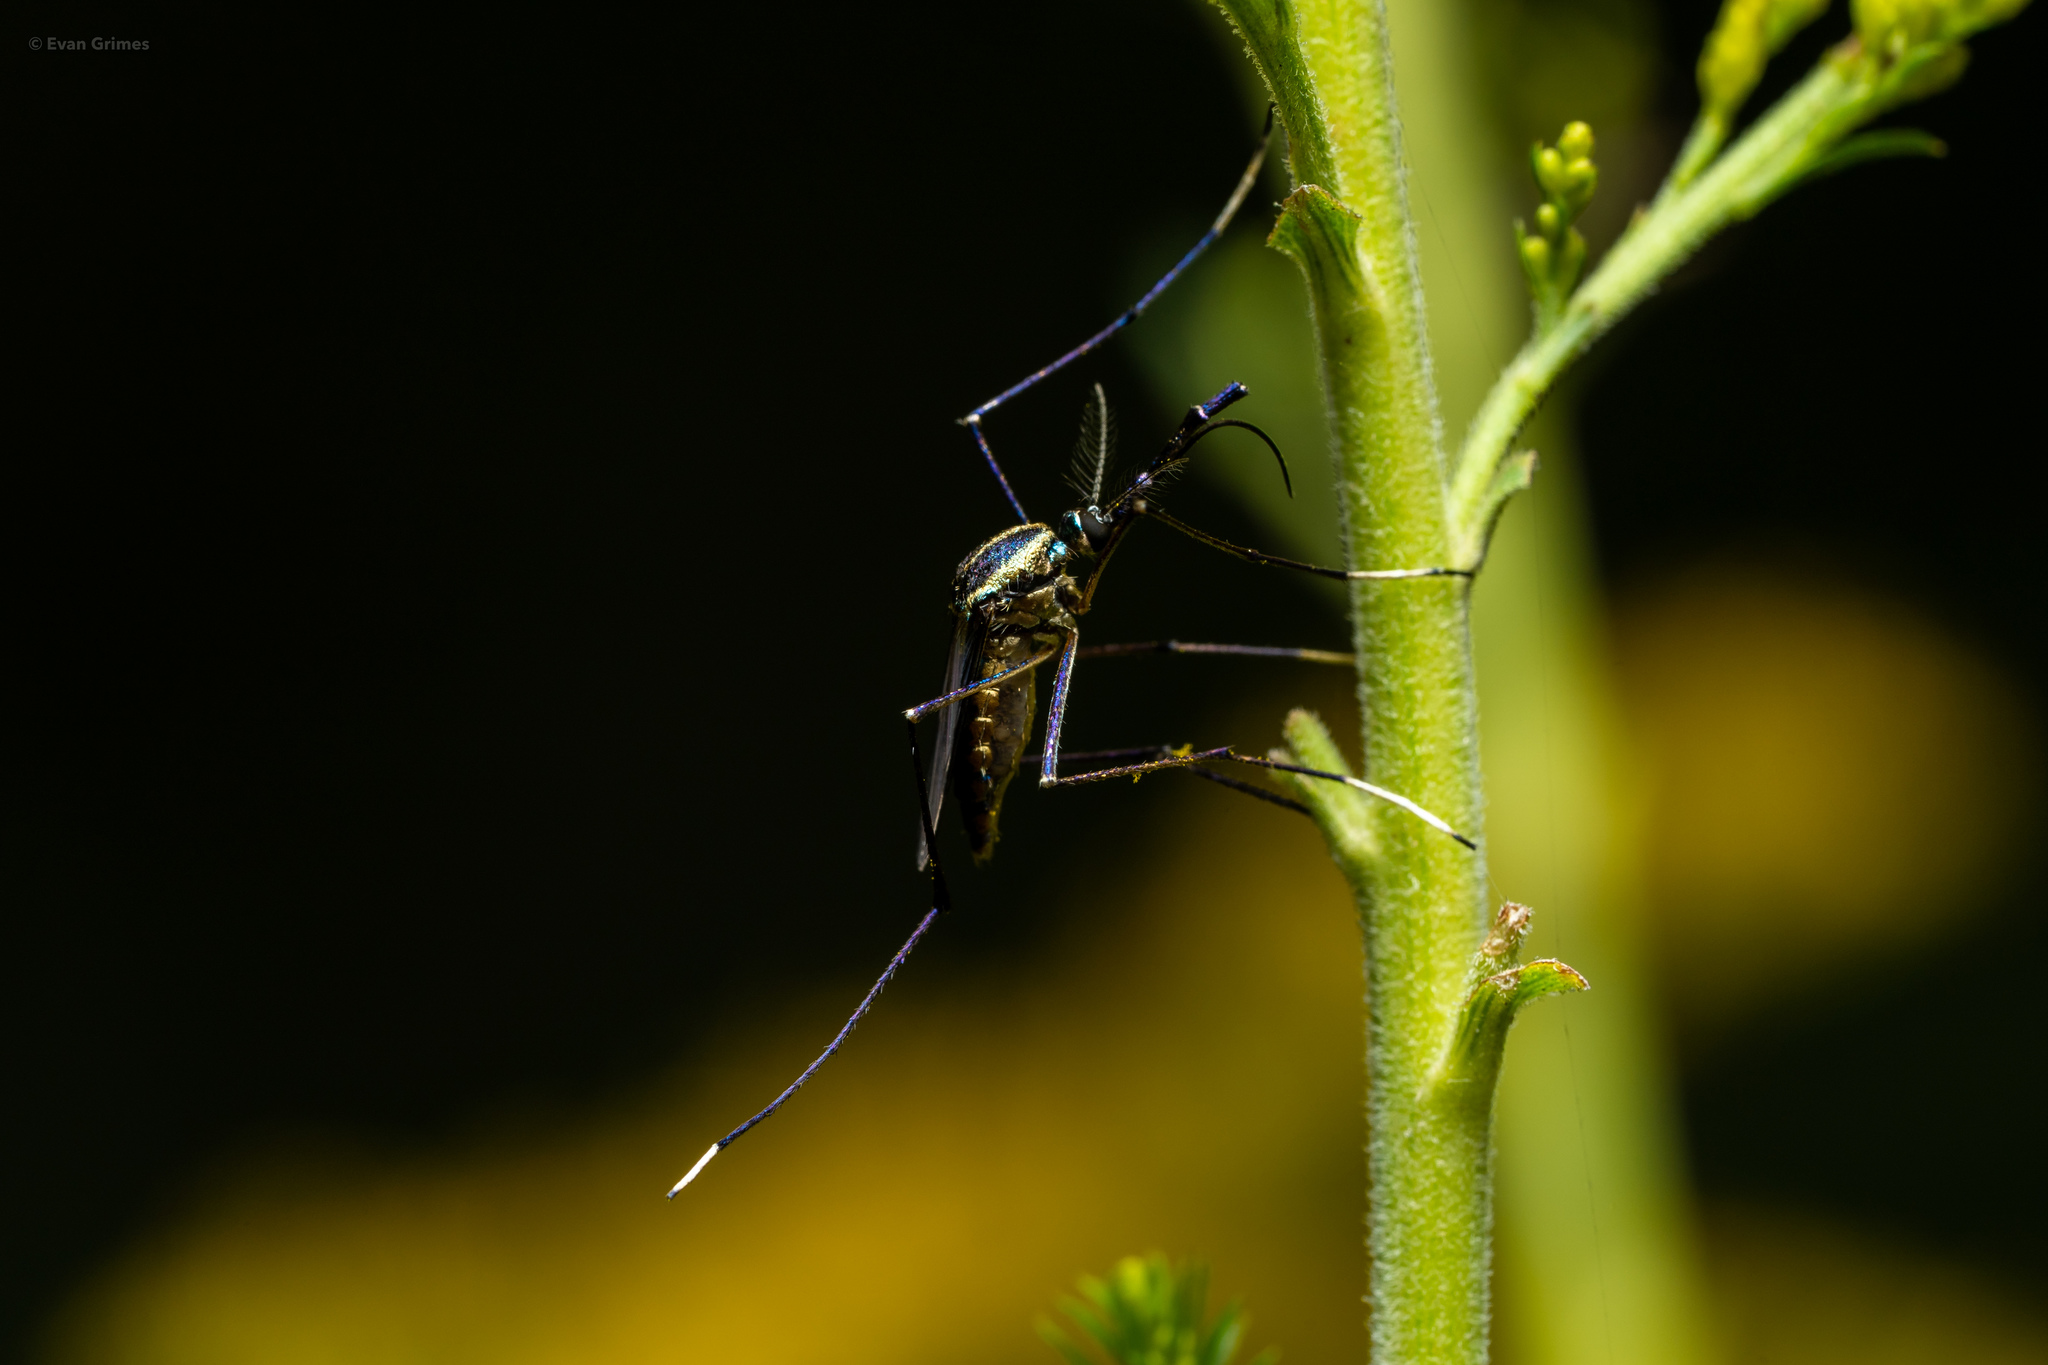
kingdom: Animalia
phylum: Arthropoda
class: Insecta
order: Diptera
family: Culicidae
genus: Toxorhynchites
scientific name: Toxorhynchites rutilus
